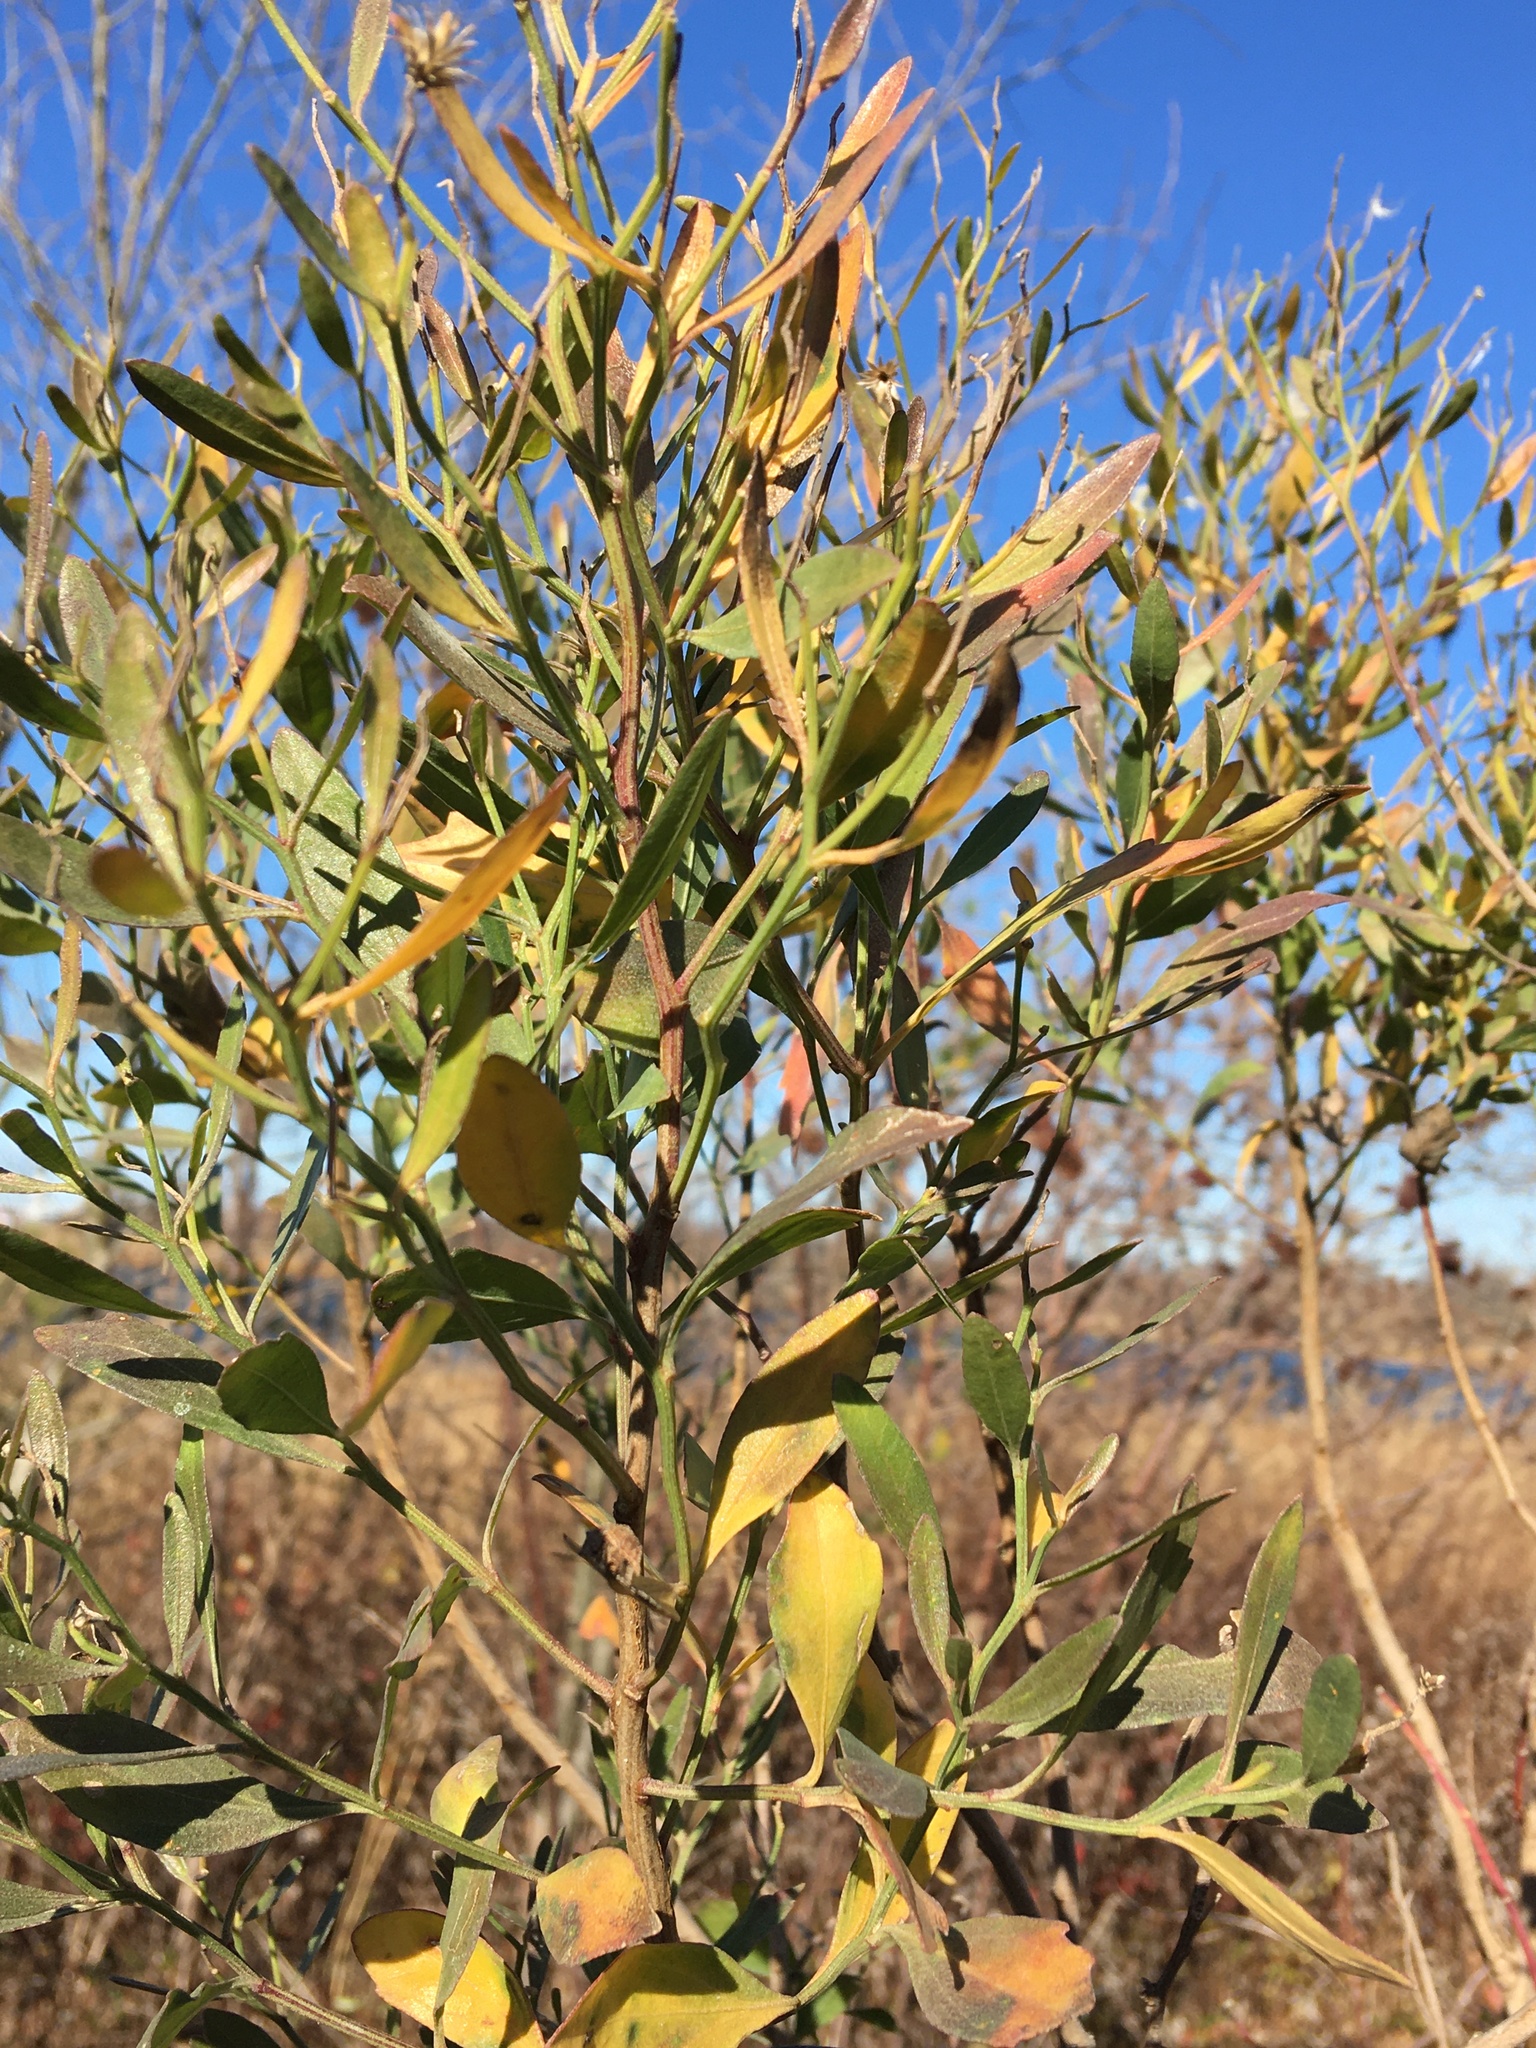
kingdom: Plantae
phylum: Tracheophyta
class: Magnoliopsida
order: Asterales
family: Asteraceae
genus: Baccharis
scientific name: Baccharis halimifolia
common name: Eastern baccharis
